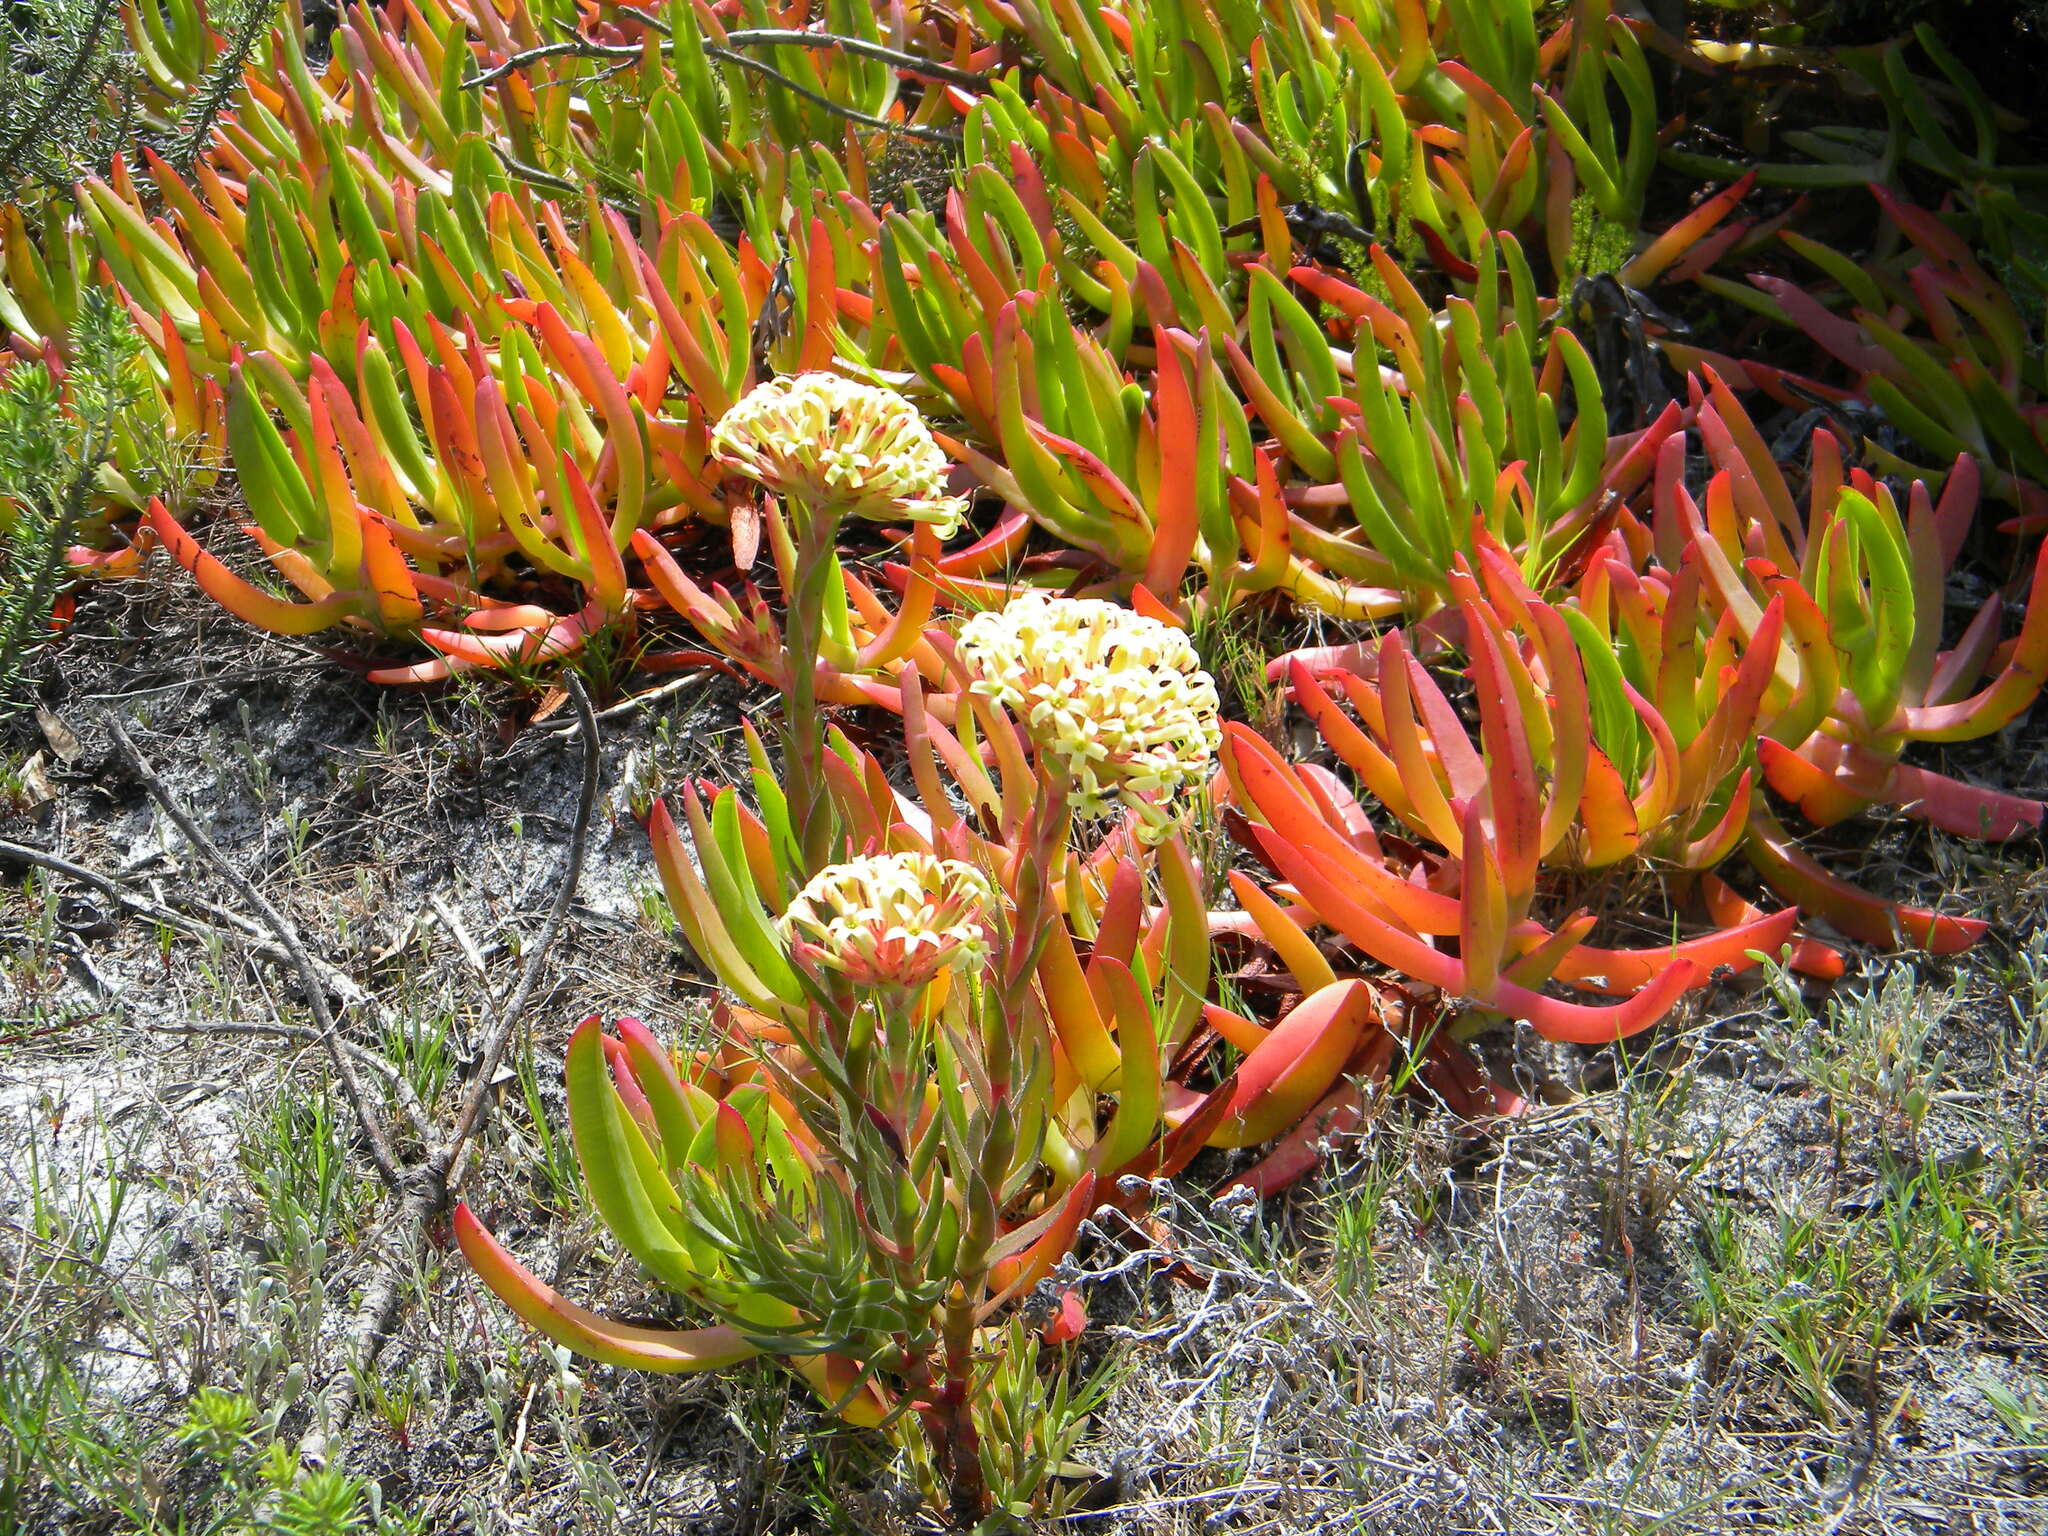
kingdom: Plantae
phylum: Tracheophyta
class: Magnoliopsida
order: Saxifragales
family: Crassulaceae
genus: Crassula
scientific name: Crassula fascicularis
